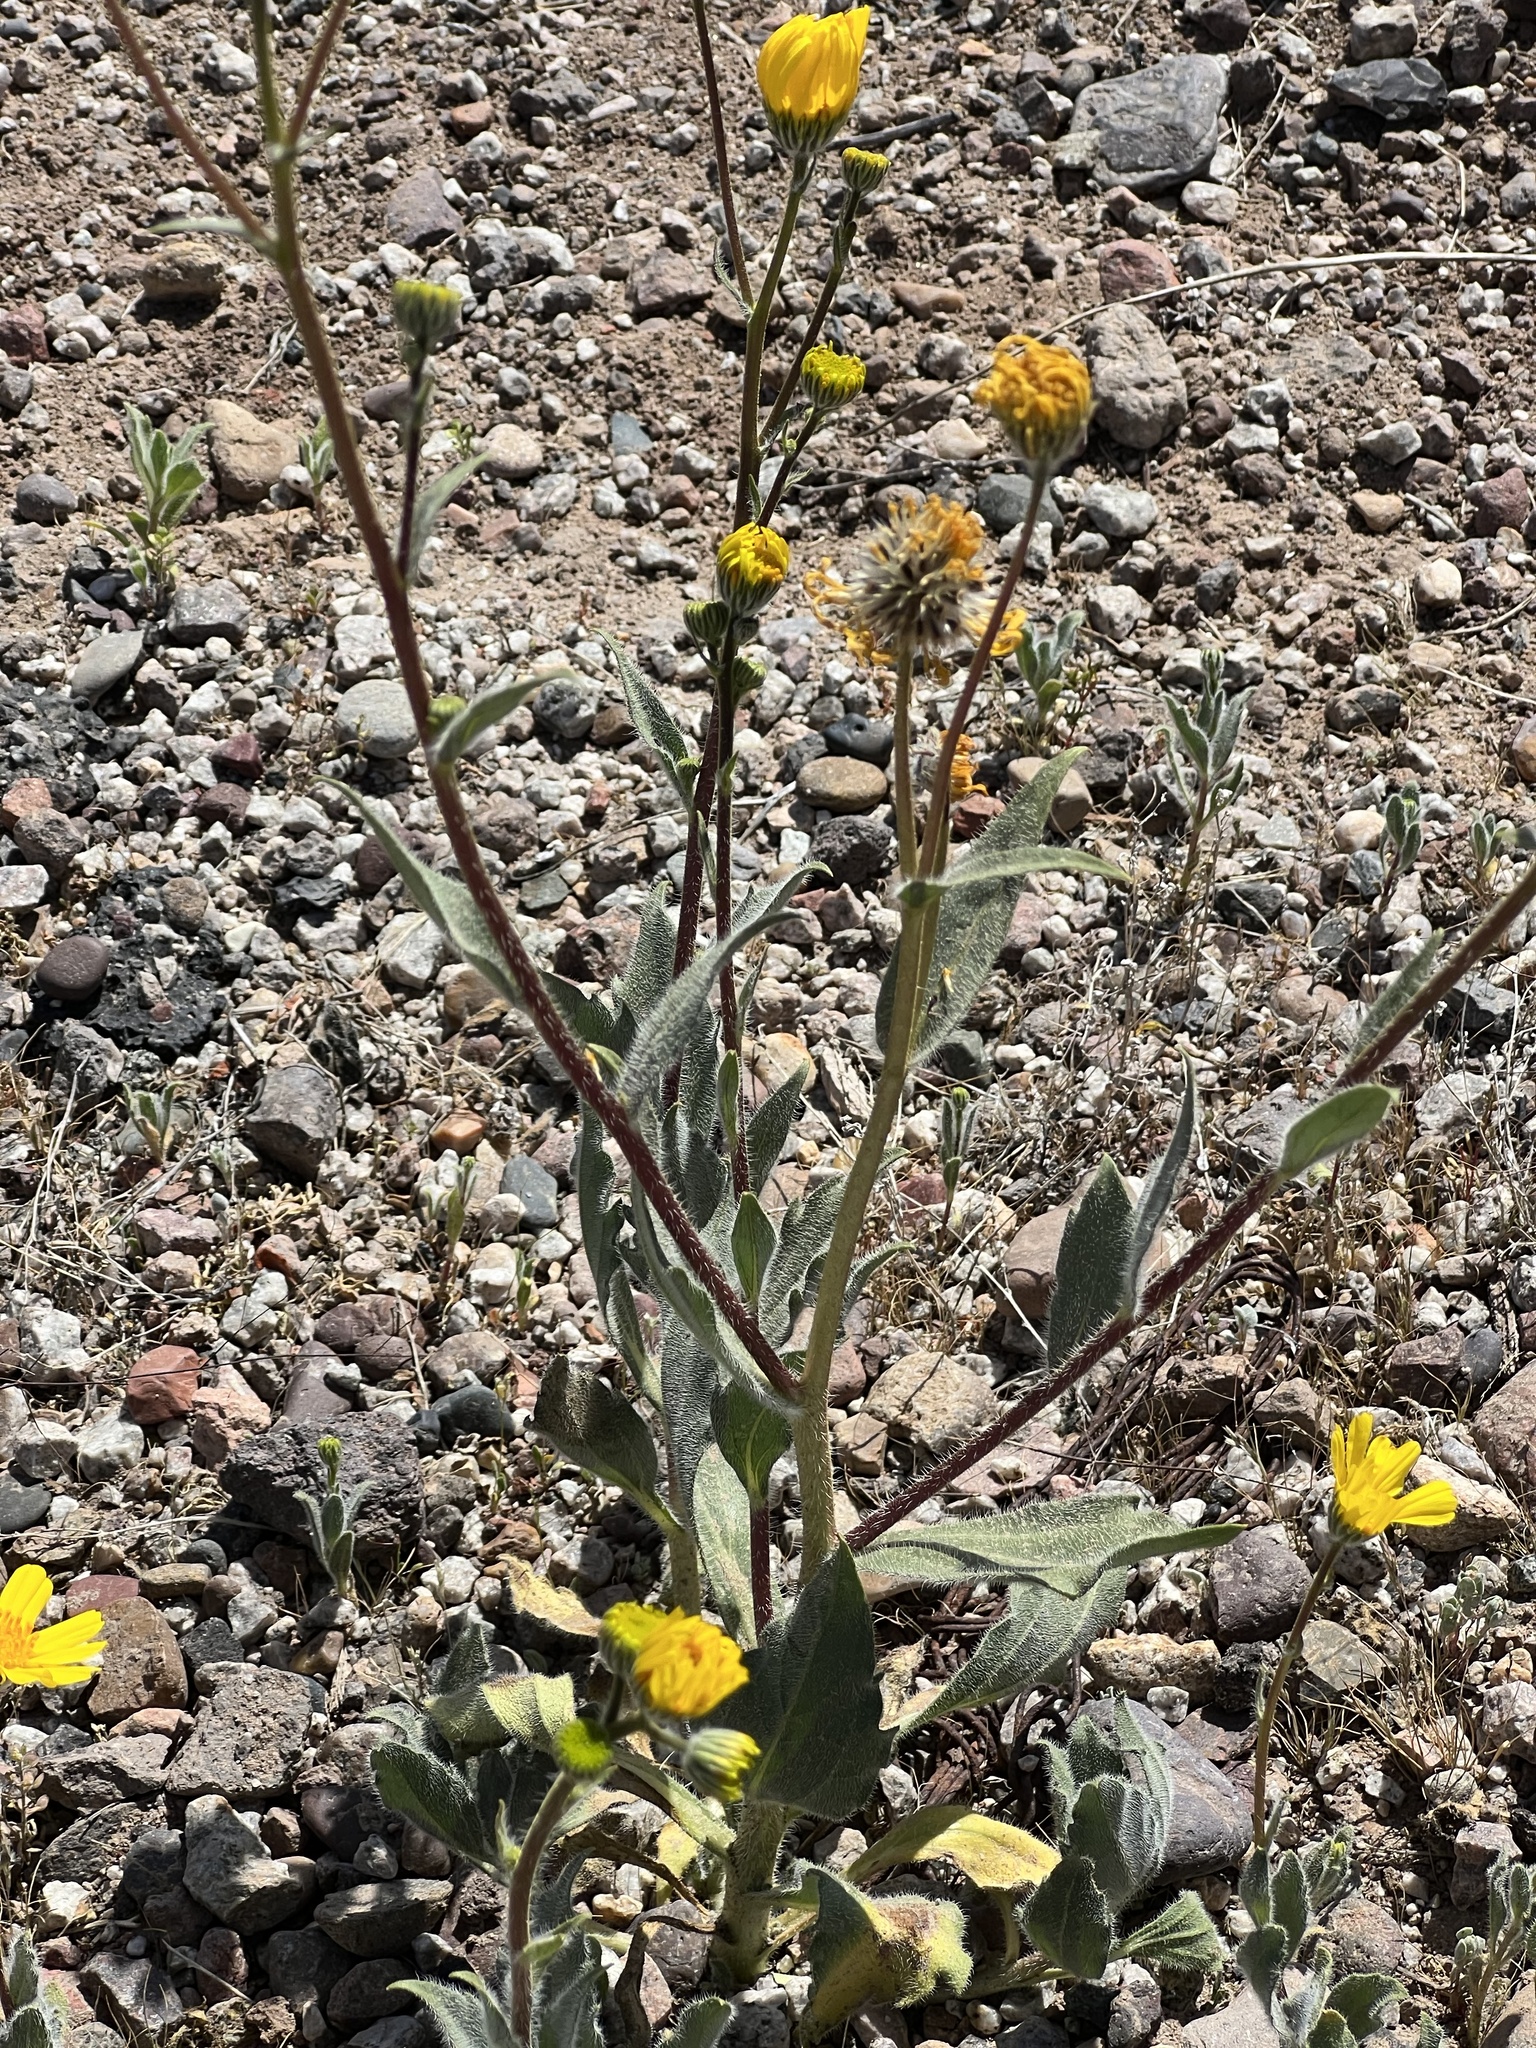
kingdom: Plantae
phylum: Tracheophyta
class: Magnoliopsida
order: Asterales
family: Asteraceae
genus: Geraea
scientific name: Geraea canescens
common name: Desert-gold
